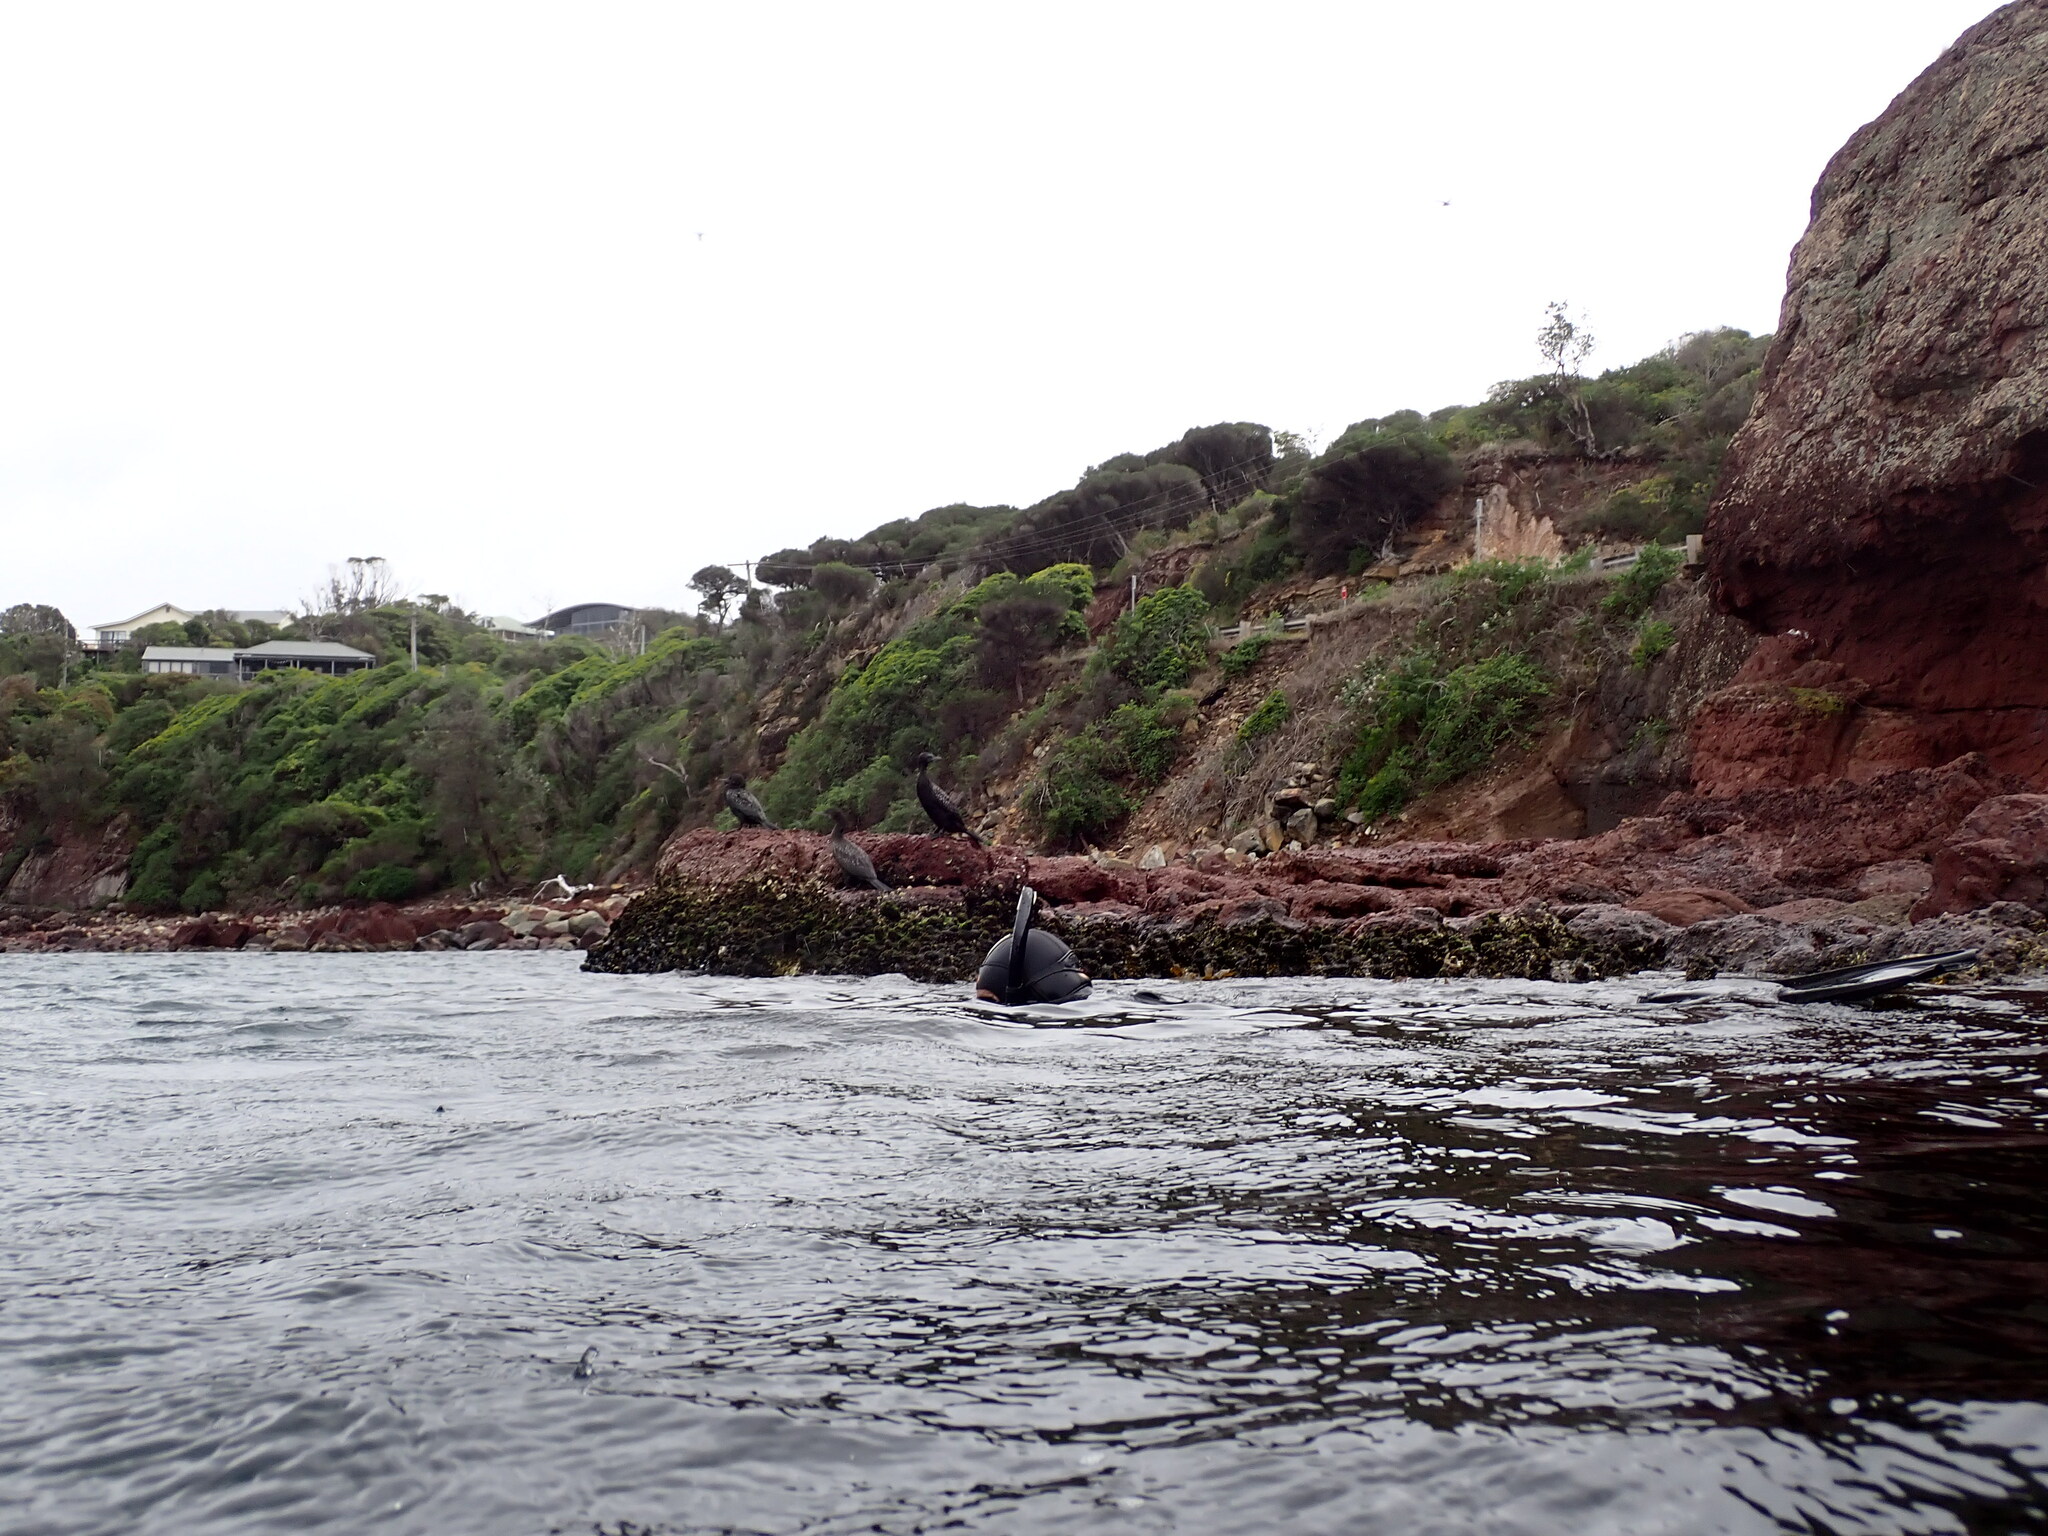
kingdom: Animalia
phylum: Chordata
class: Aves
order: Suliformes
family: Phalacrocoracidae
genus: Phalacrocorax
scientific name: Phalacrocorax sulcirostris
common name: Little black cormorant
